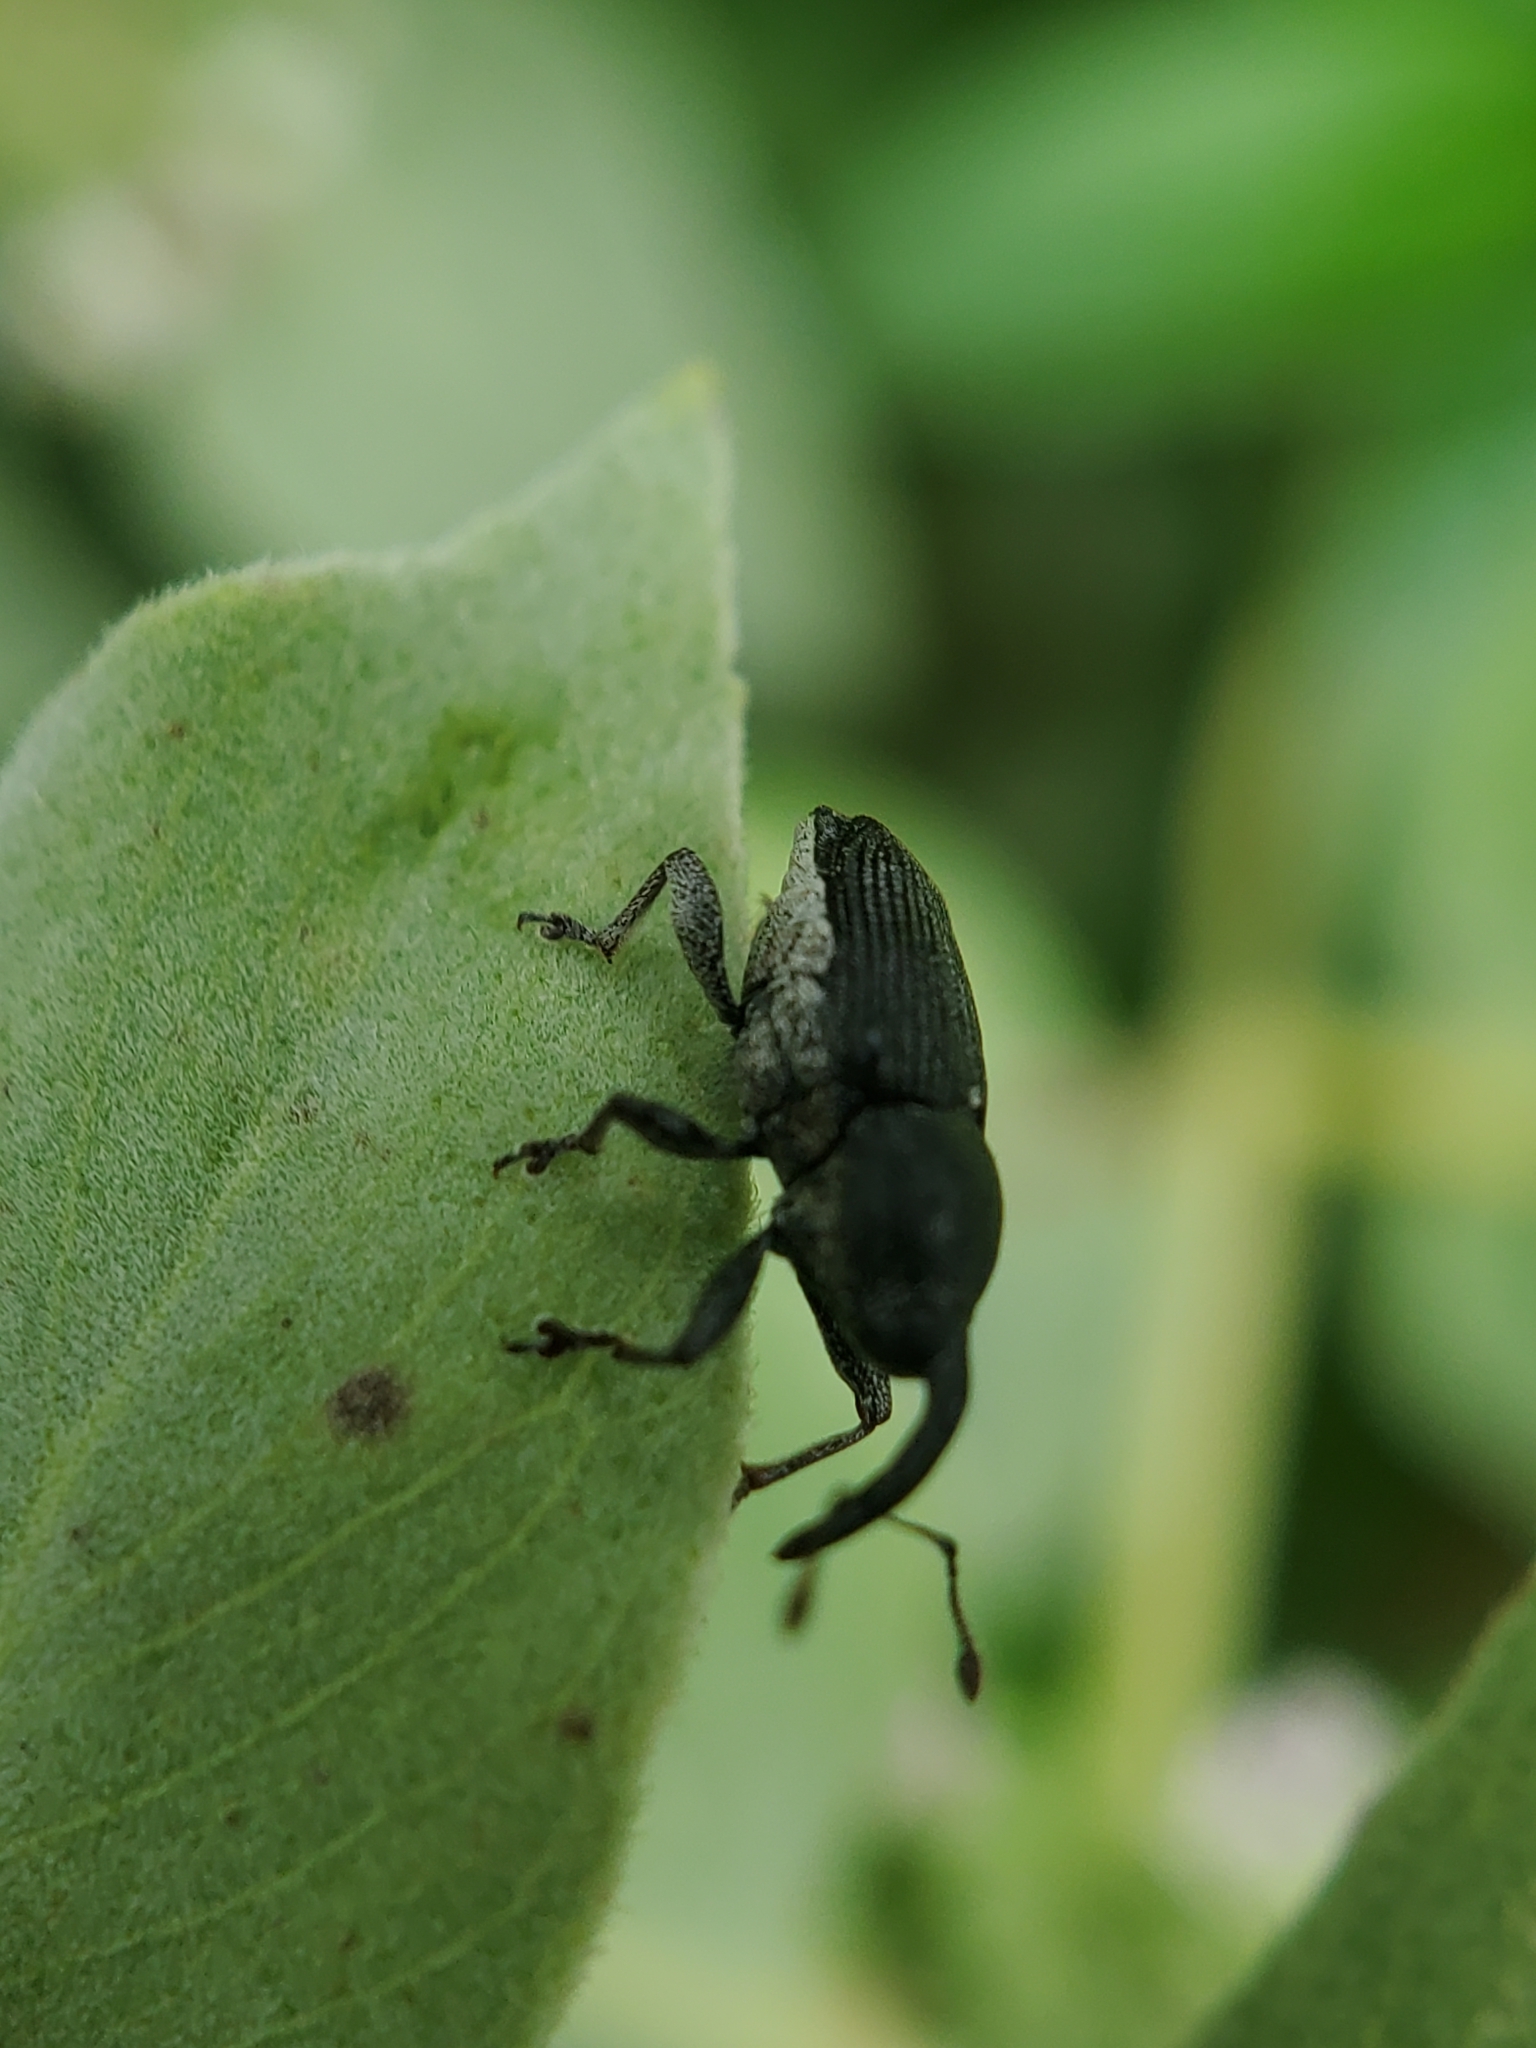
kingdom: Animalia
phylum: Arthropoda
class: Insecta
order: Coleoptera
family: Curculionidae
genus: Odontocorynus
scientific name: Odontocorynus salebrosus
